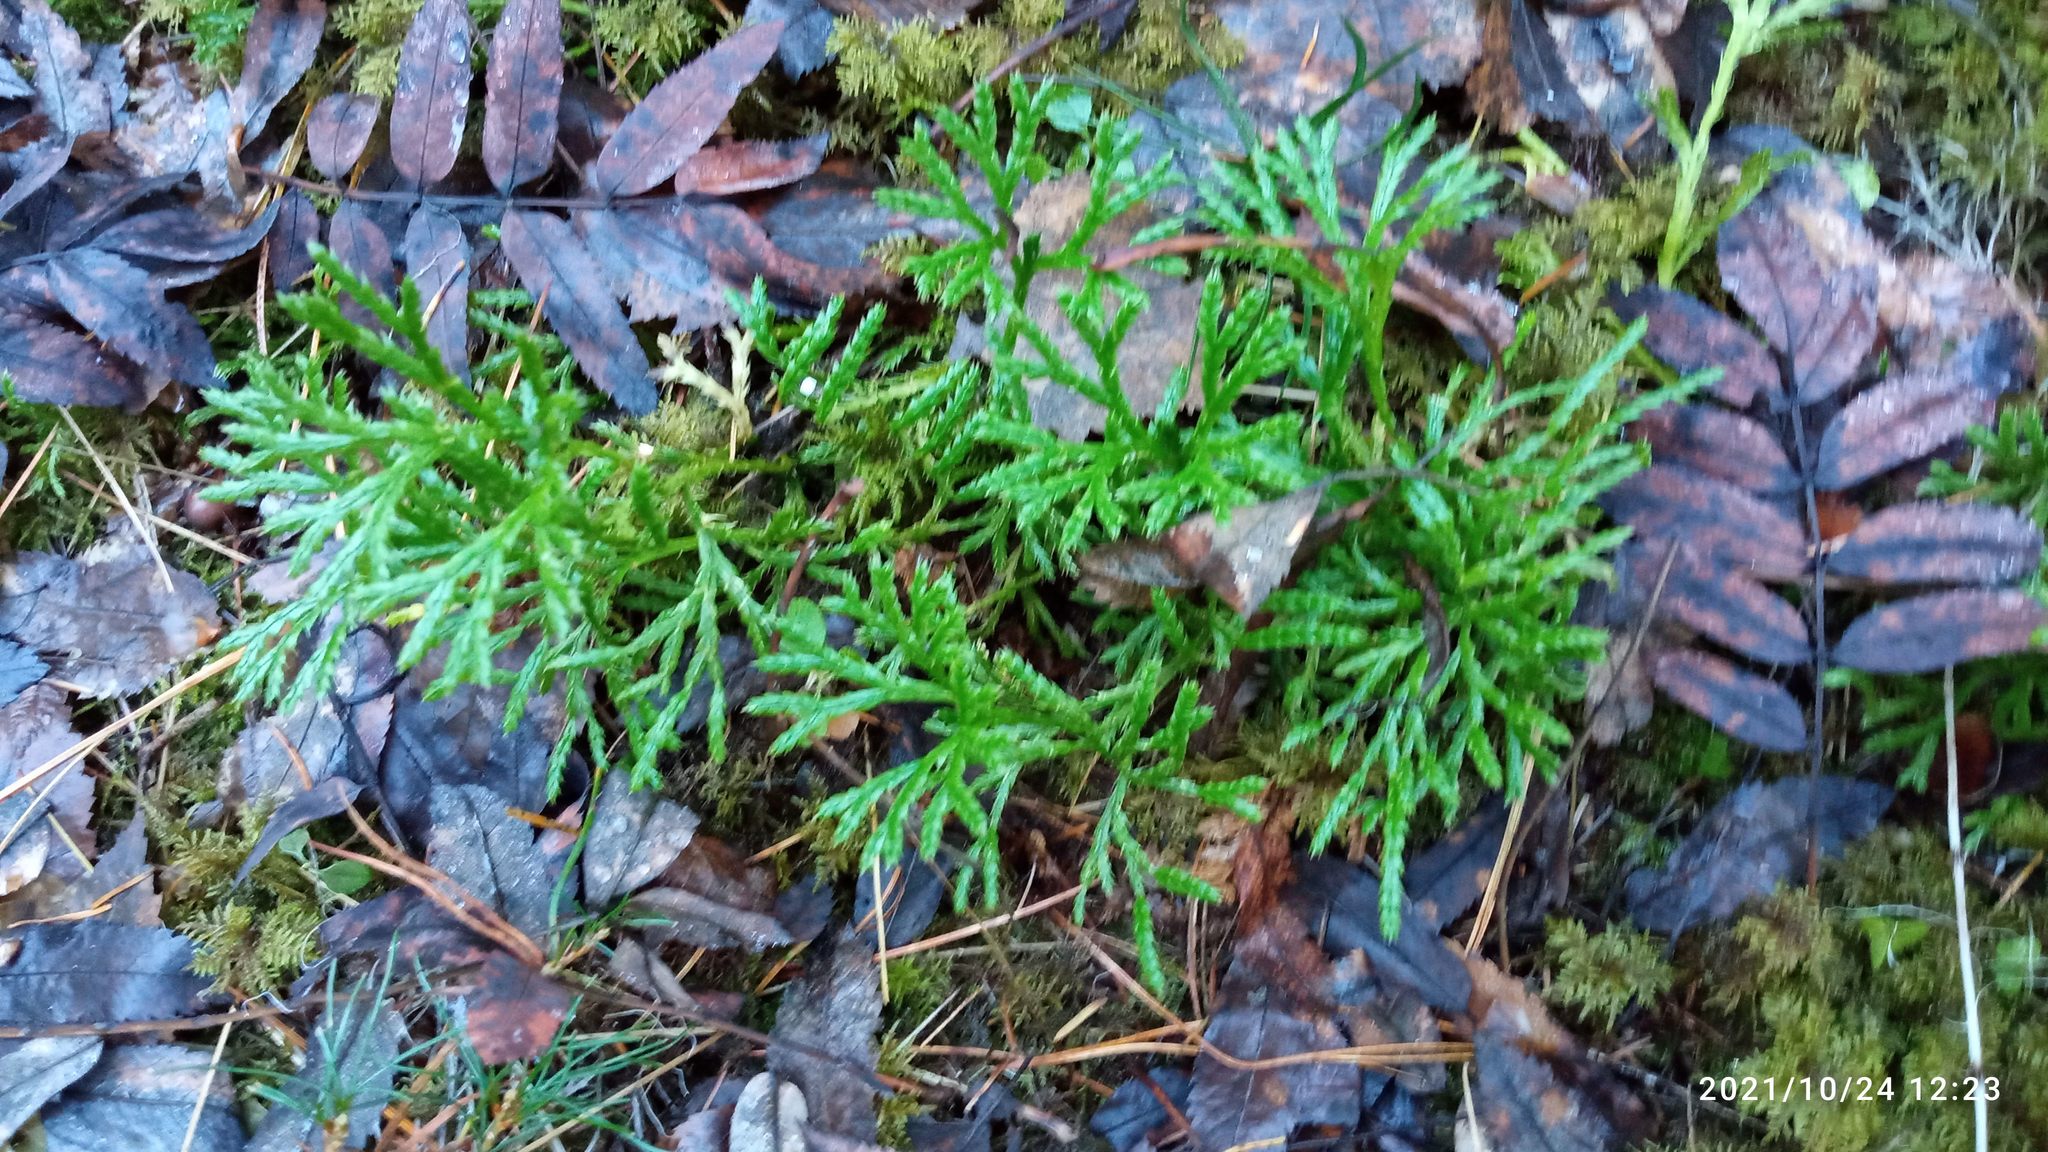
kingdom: Plantae
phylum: Tracheophyta
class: Lycopodiopsida
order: Lycopodiales
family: Lycopodiaceae
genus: Diphasiastrum
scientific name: Diphasiastrum complanatum
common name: Northern running-pine
